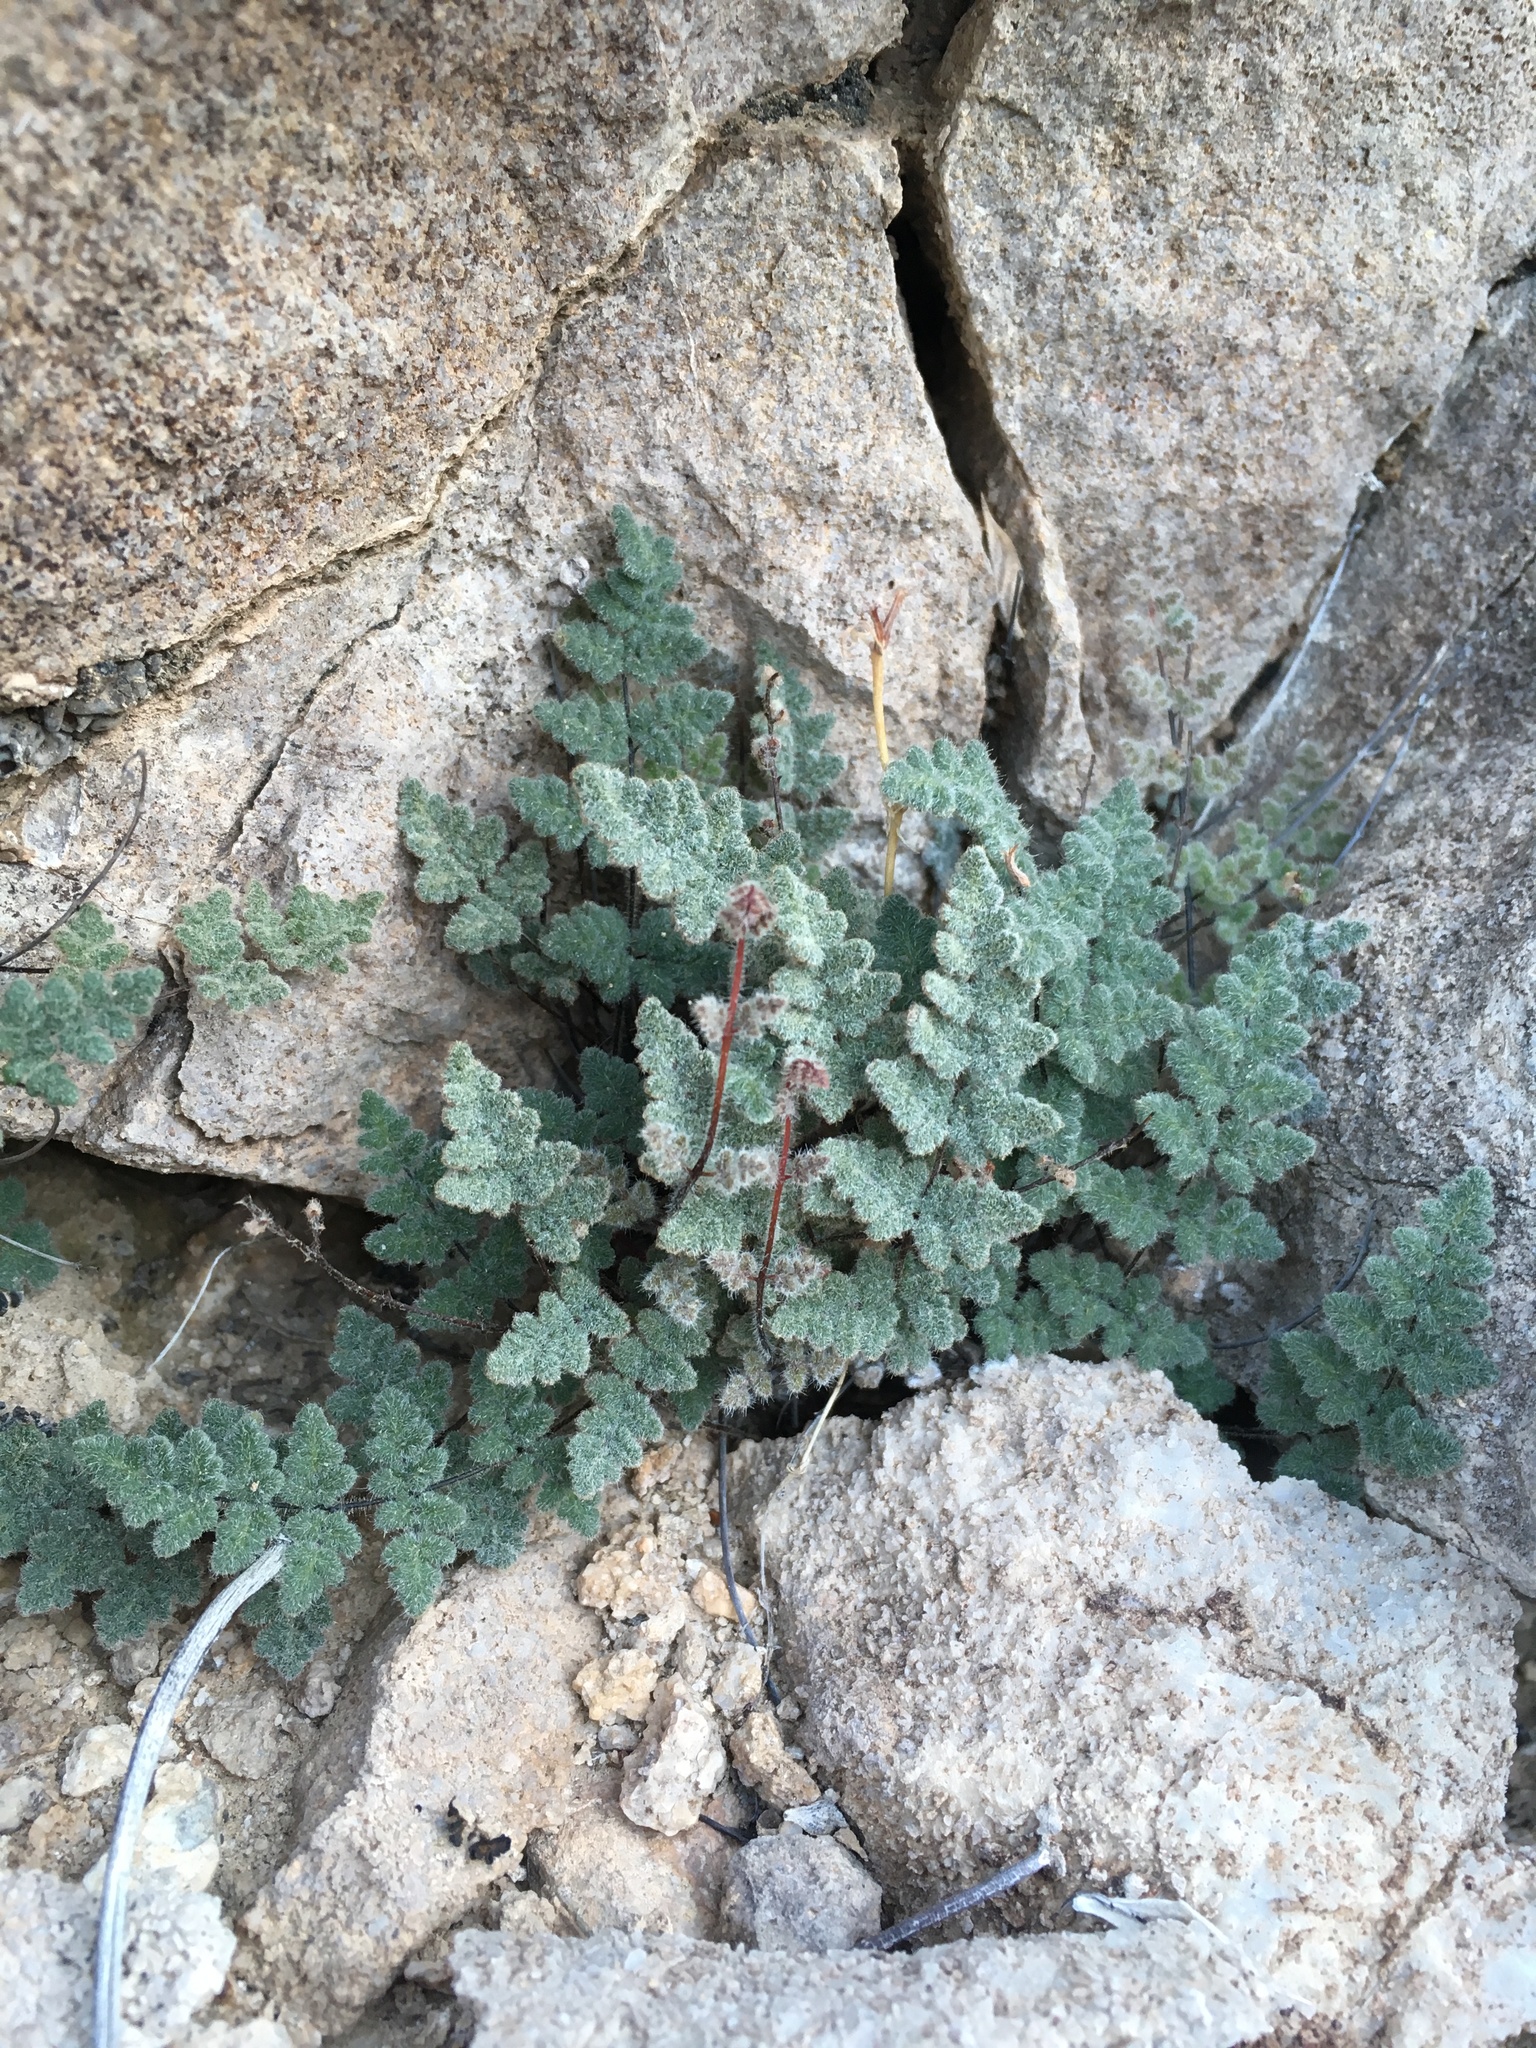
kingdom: Plantae
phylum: Tracheophyta
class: Polypodiopsida
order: Polypodiales
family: Pteridaceae
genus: Myriopteris
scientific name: Myriopteris parryi
